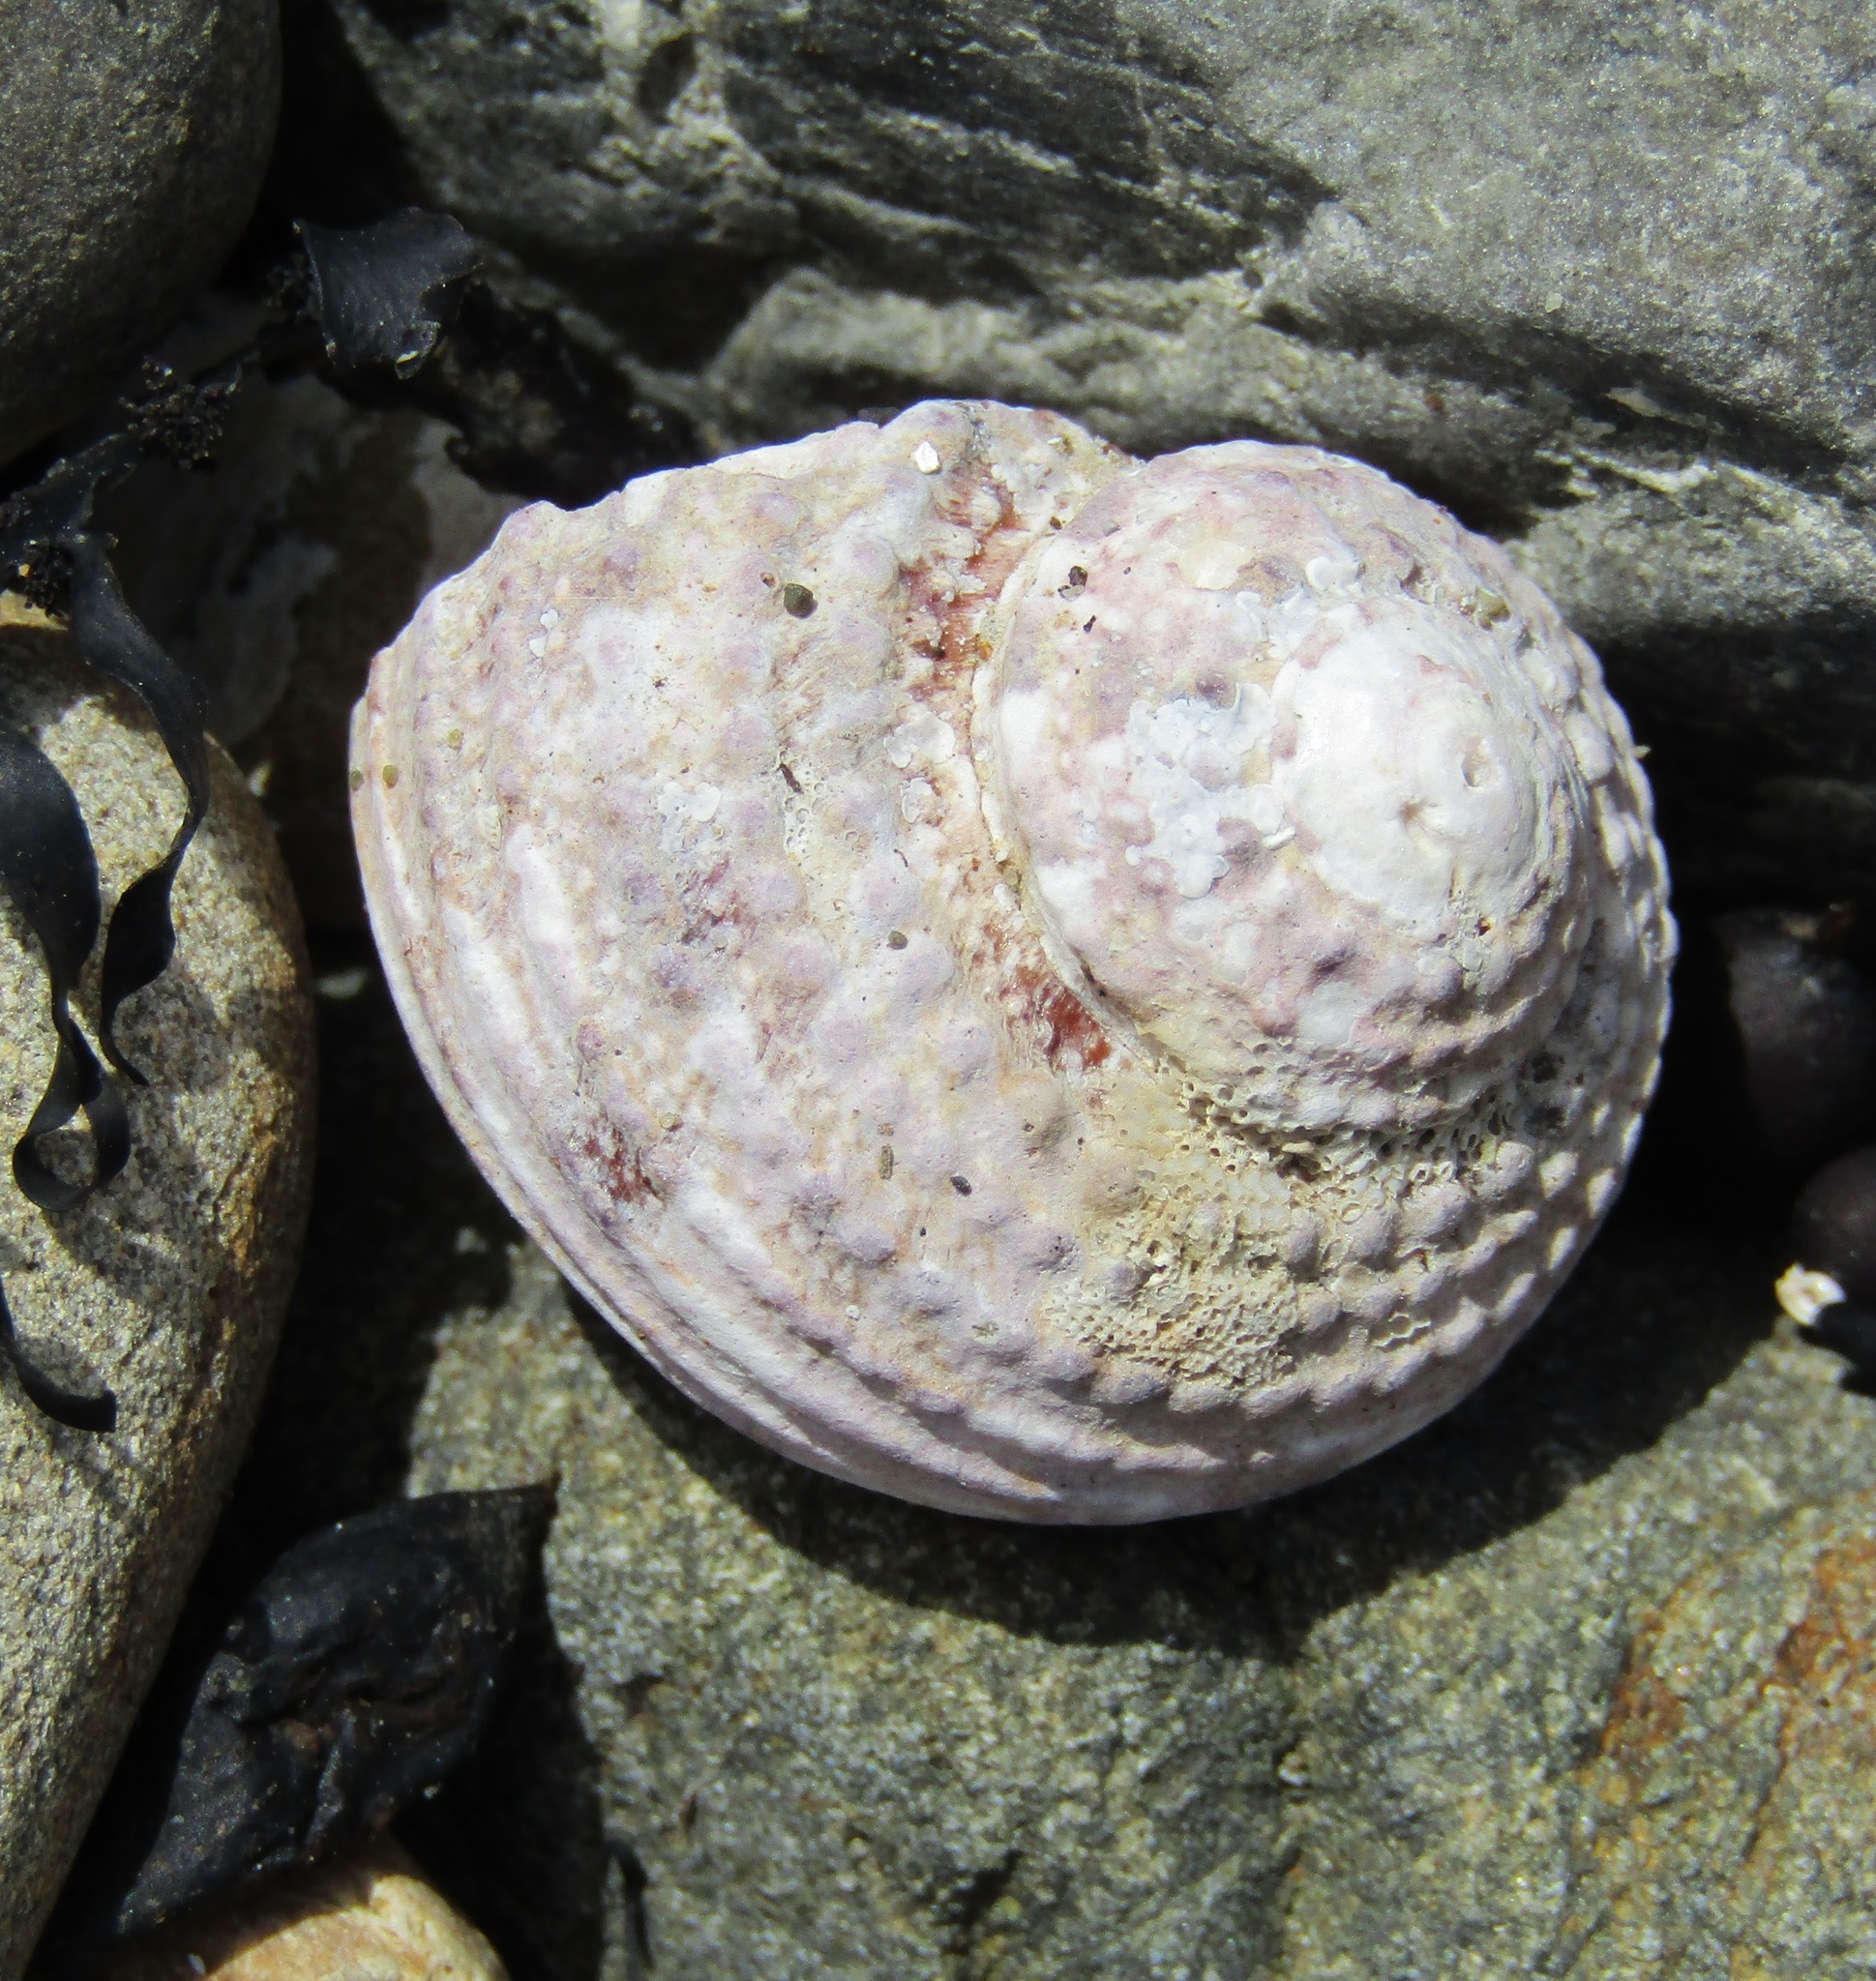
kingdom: Animalia
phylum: Mollusca
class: Gastropoda
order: Trochida
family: Turbinidae
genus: Modelia
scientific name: Modelia granosa
